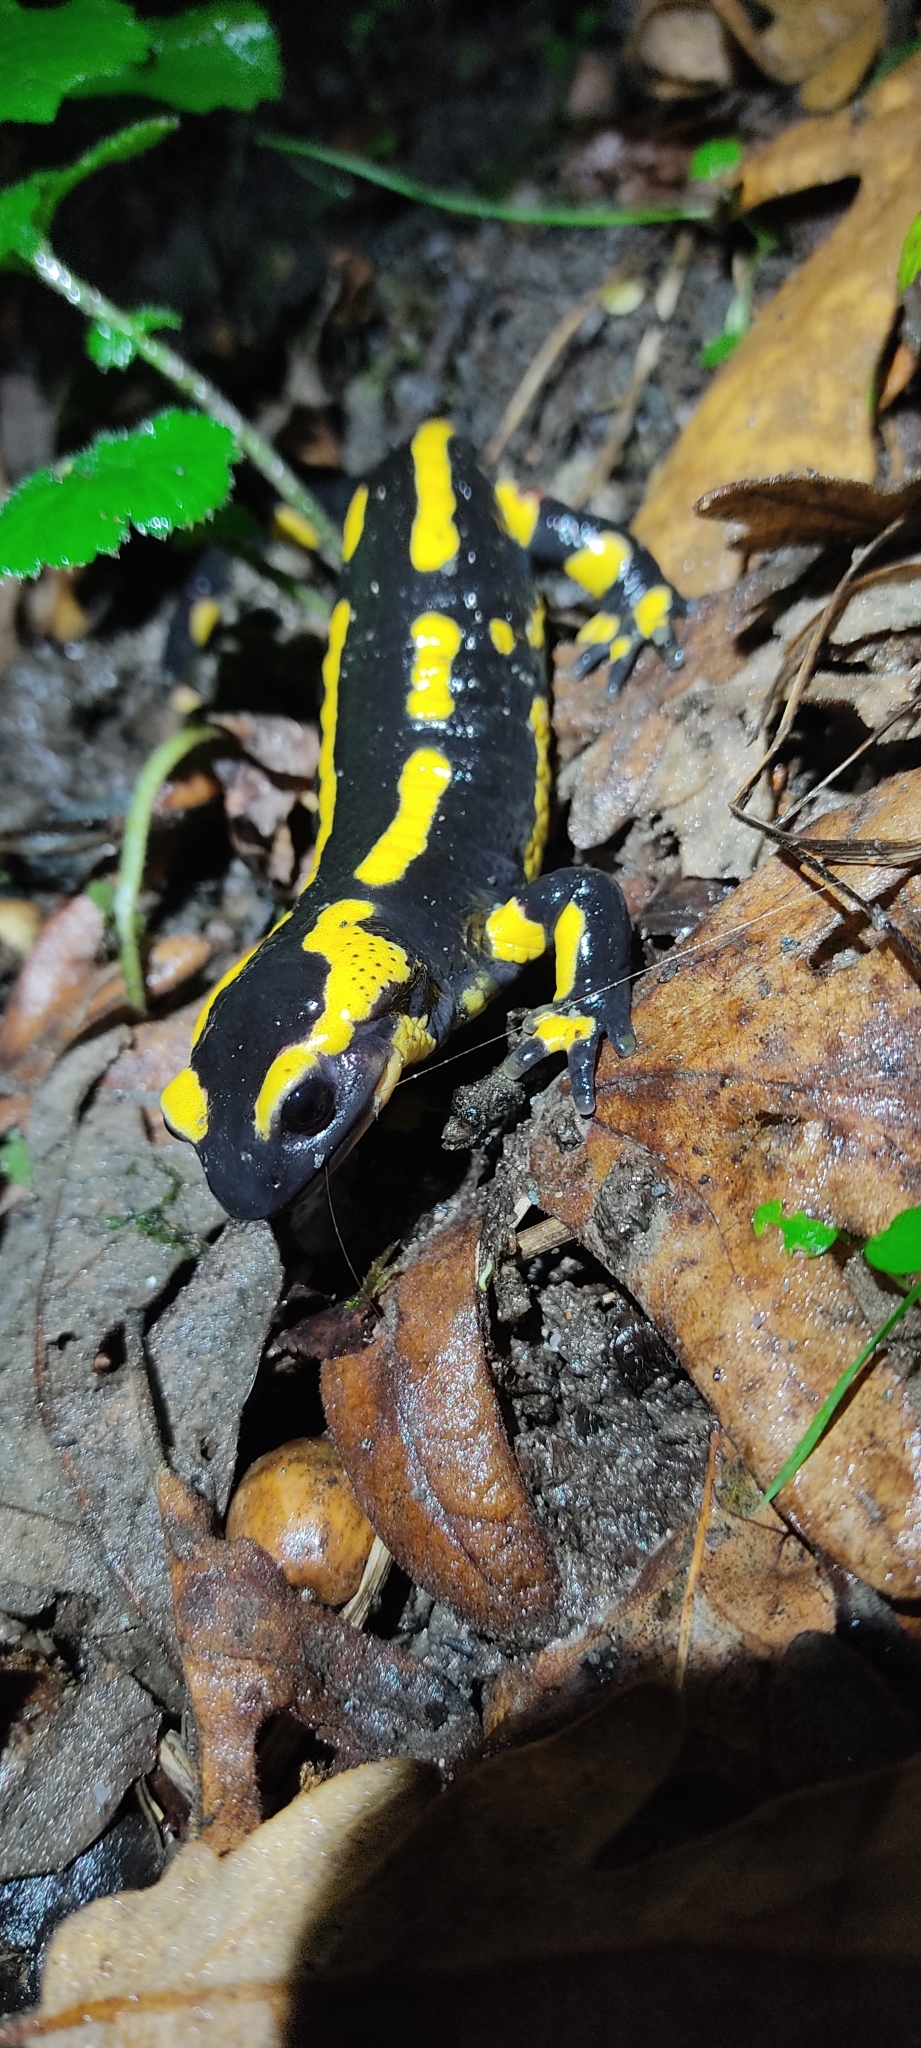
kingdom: Animalia
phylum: Chordata
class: Amphibia
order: Caudata
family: Salamandridae
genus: Salamandra
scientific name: Salamandra salamandra
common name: Fire salamander
